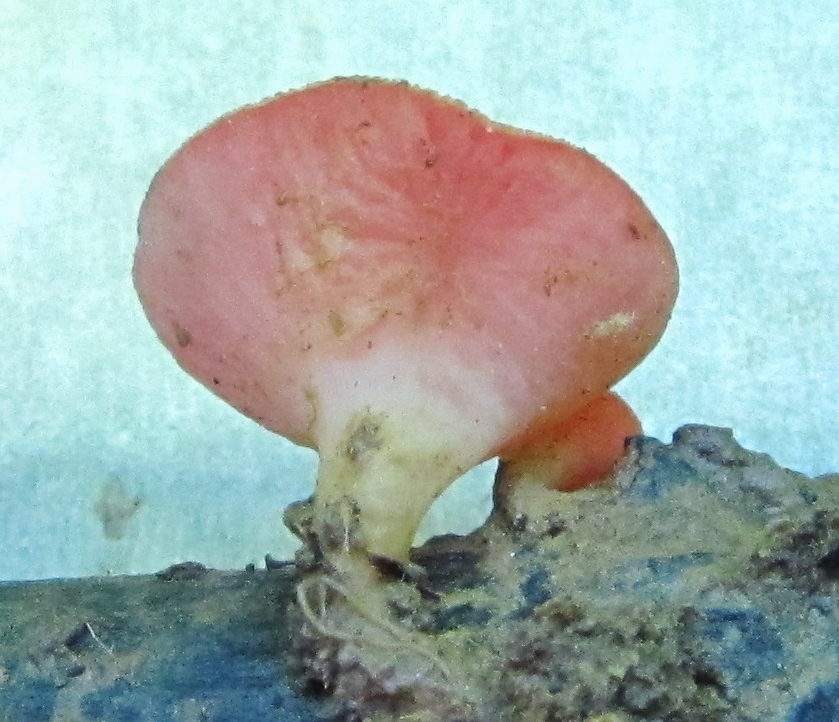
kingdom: Fungi
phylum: Ascomycota
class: Pezizomycetes
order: Pezizales
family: Sarcoscyphaceae
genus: Sarcoscypha
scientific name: Sarcoscypha occidentalis
